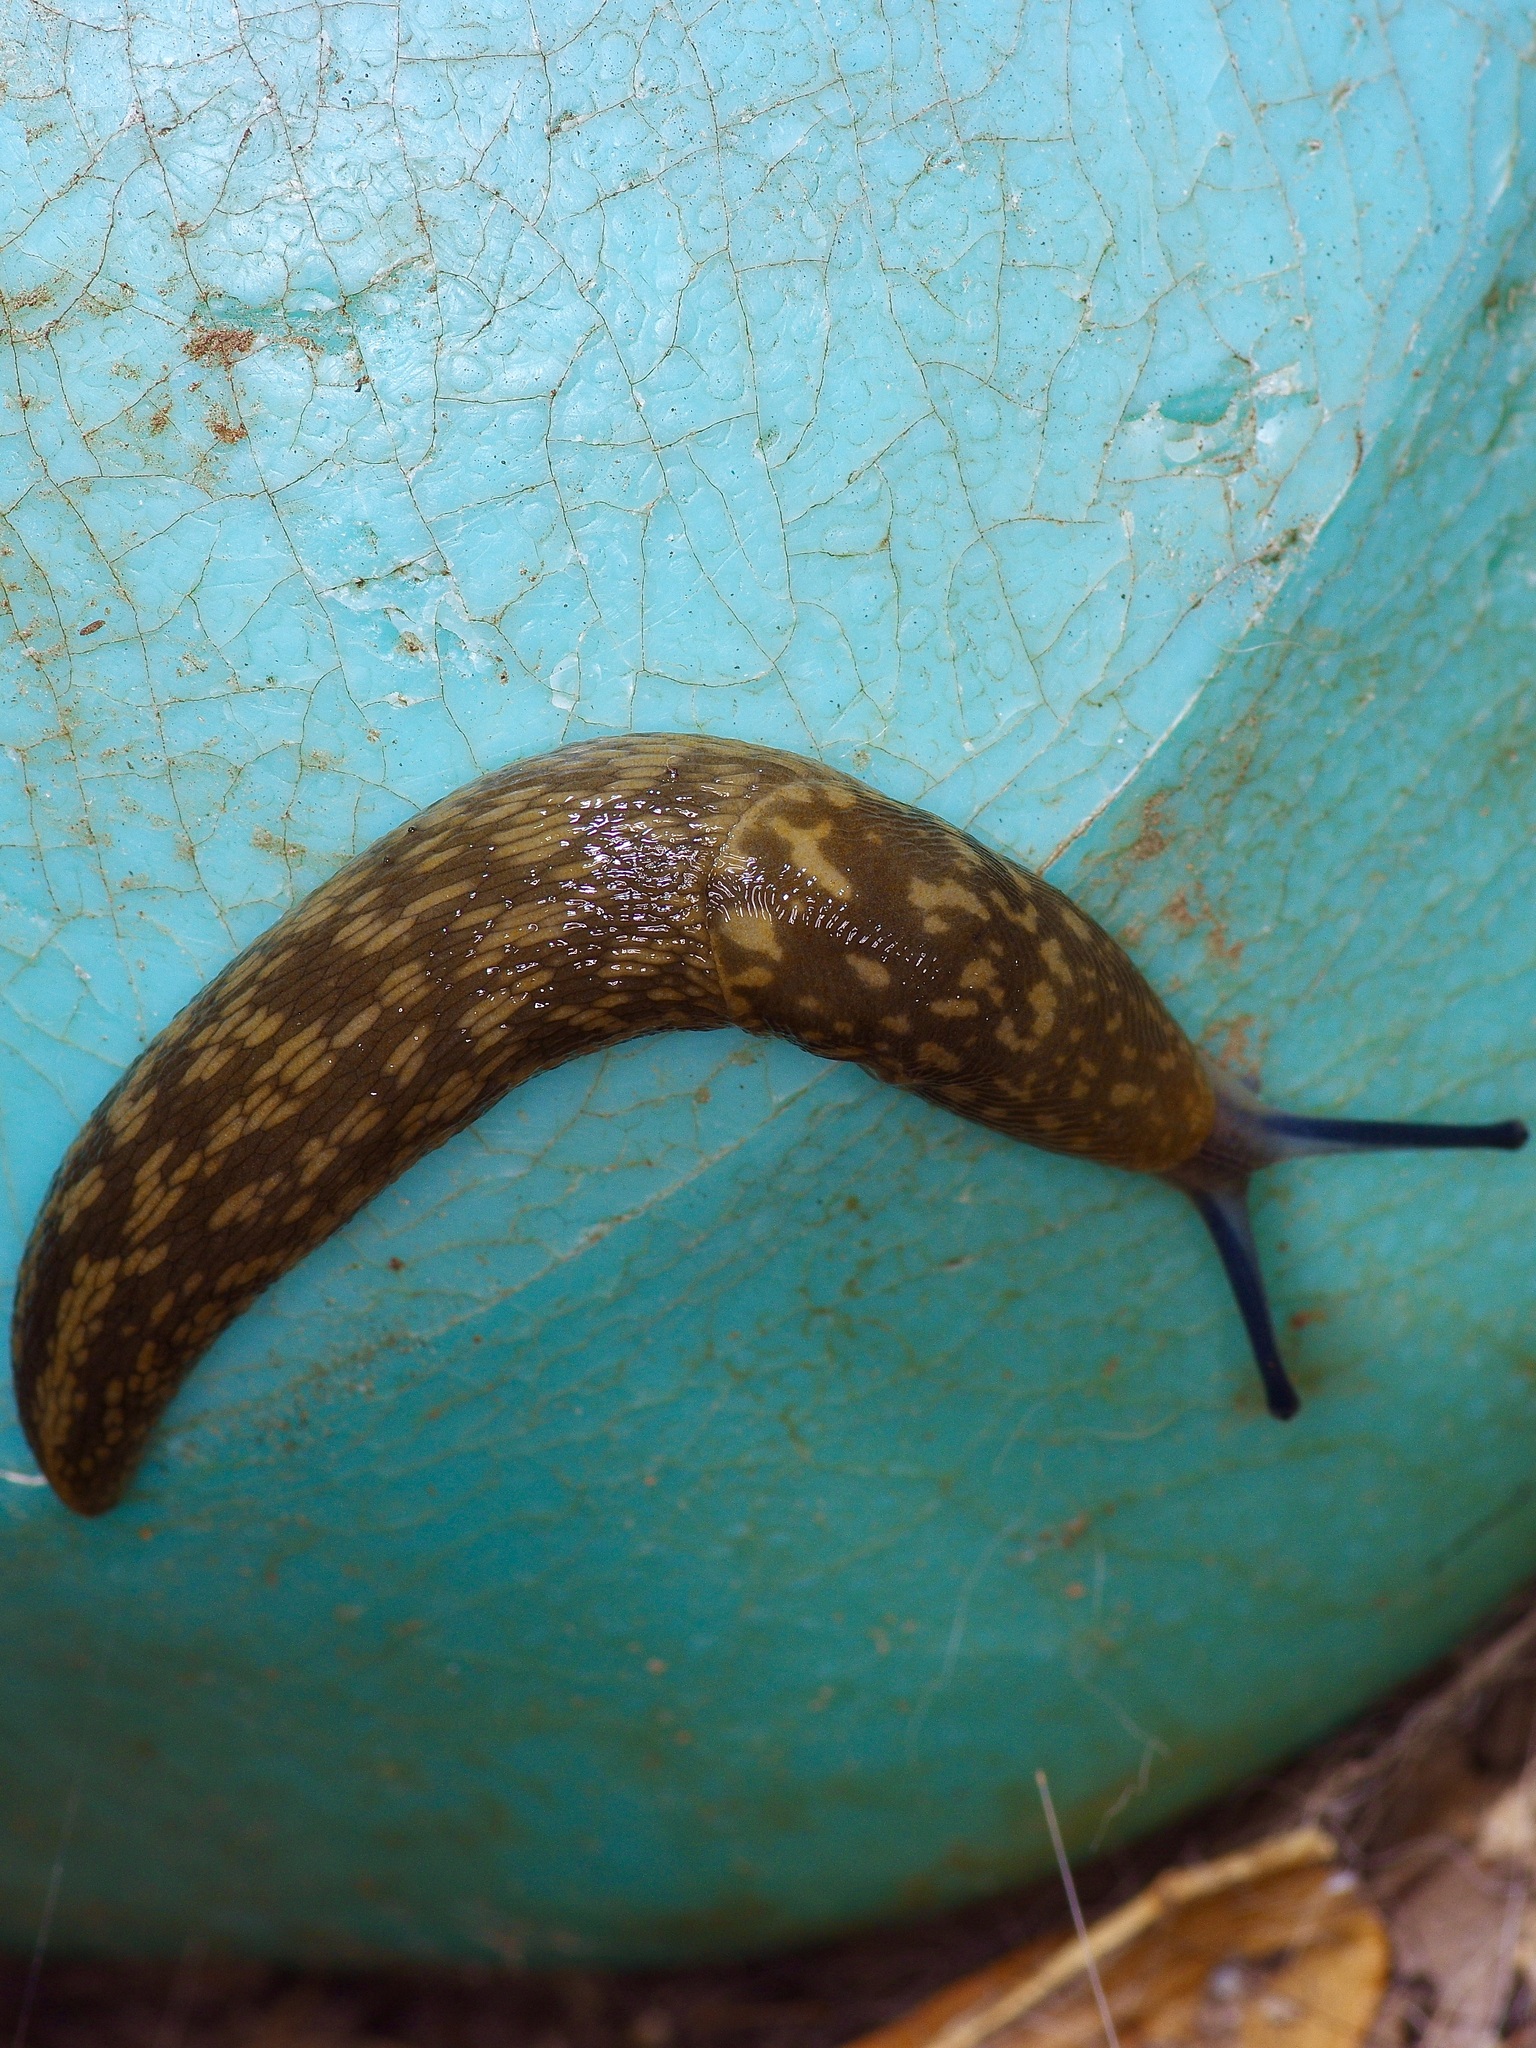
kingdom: Animalia
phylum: Mollusca
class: Gastropoda
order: Stylommatophora
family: Limacidae
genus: Limacus
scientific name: Limacus flavus
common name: Yellow gardenslug
